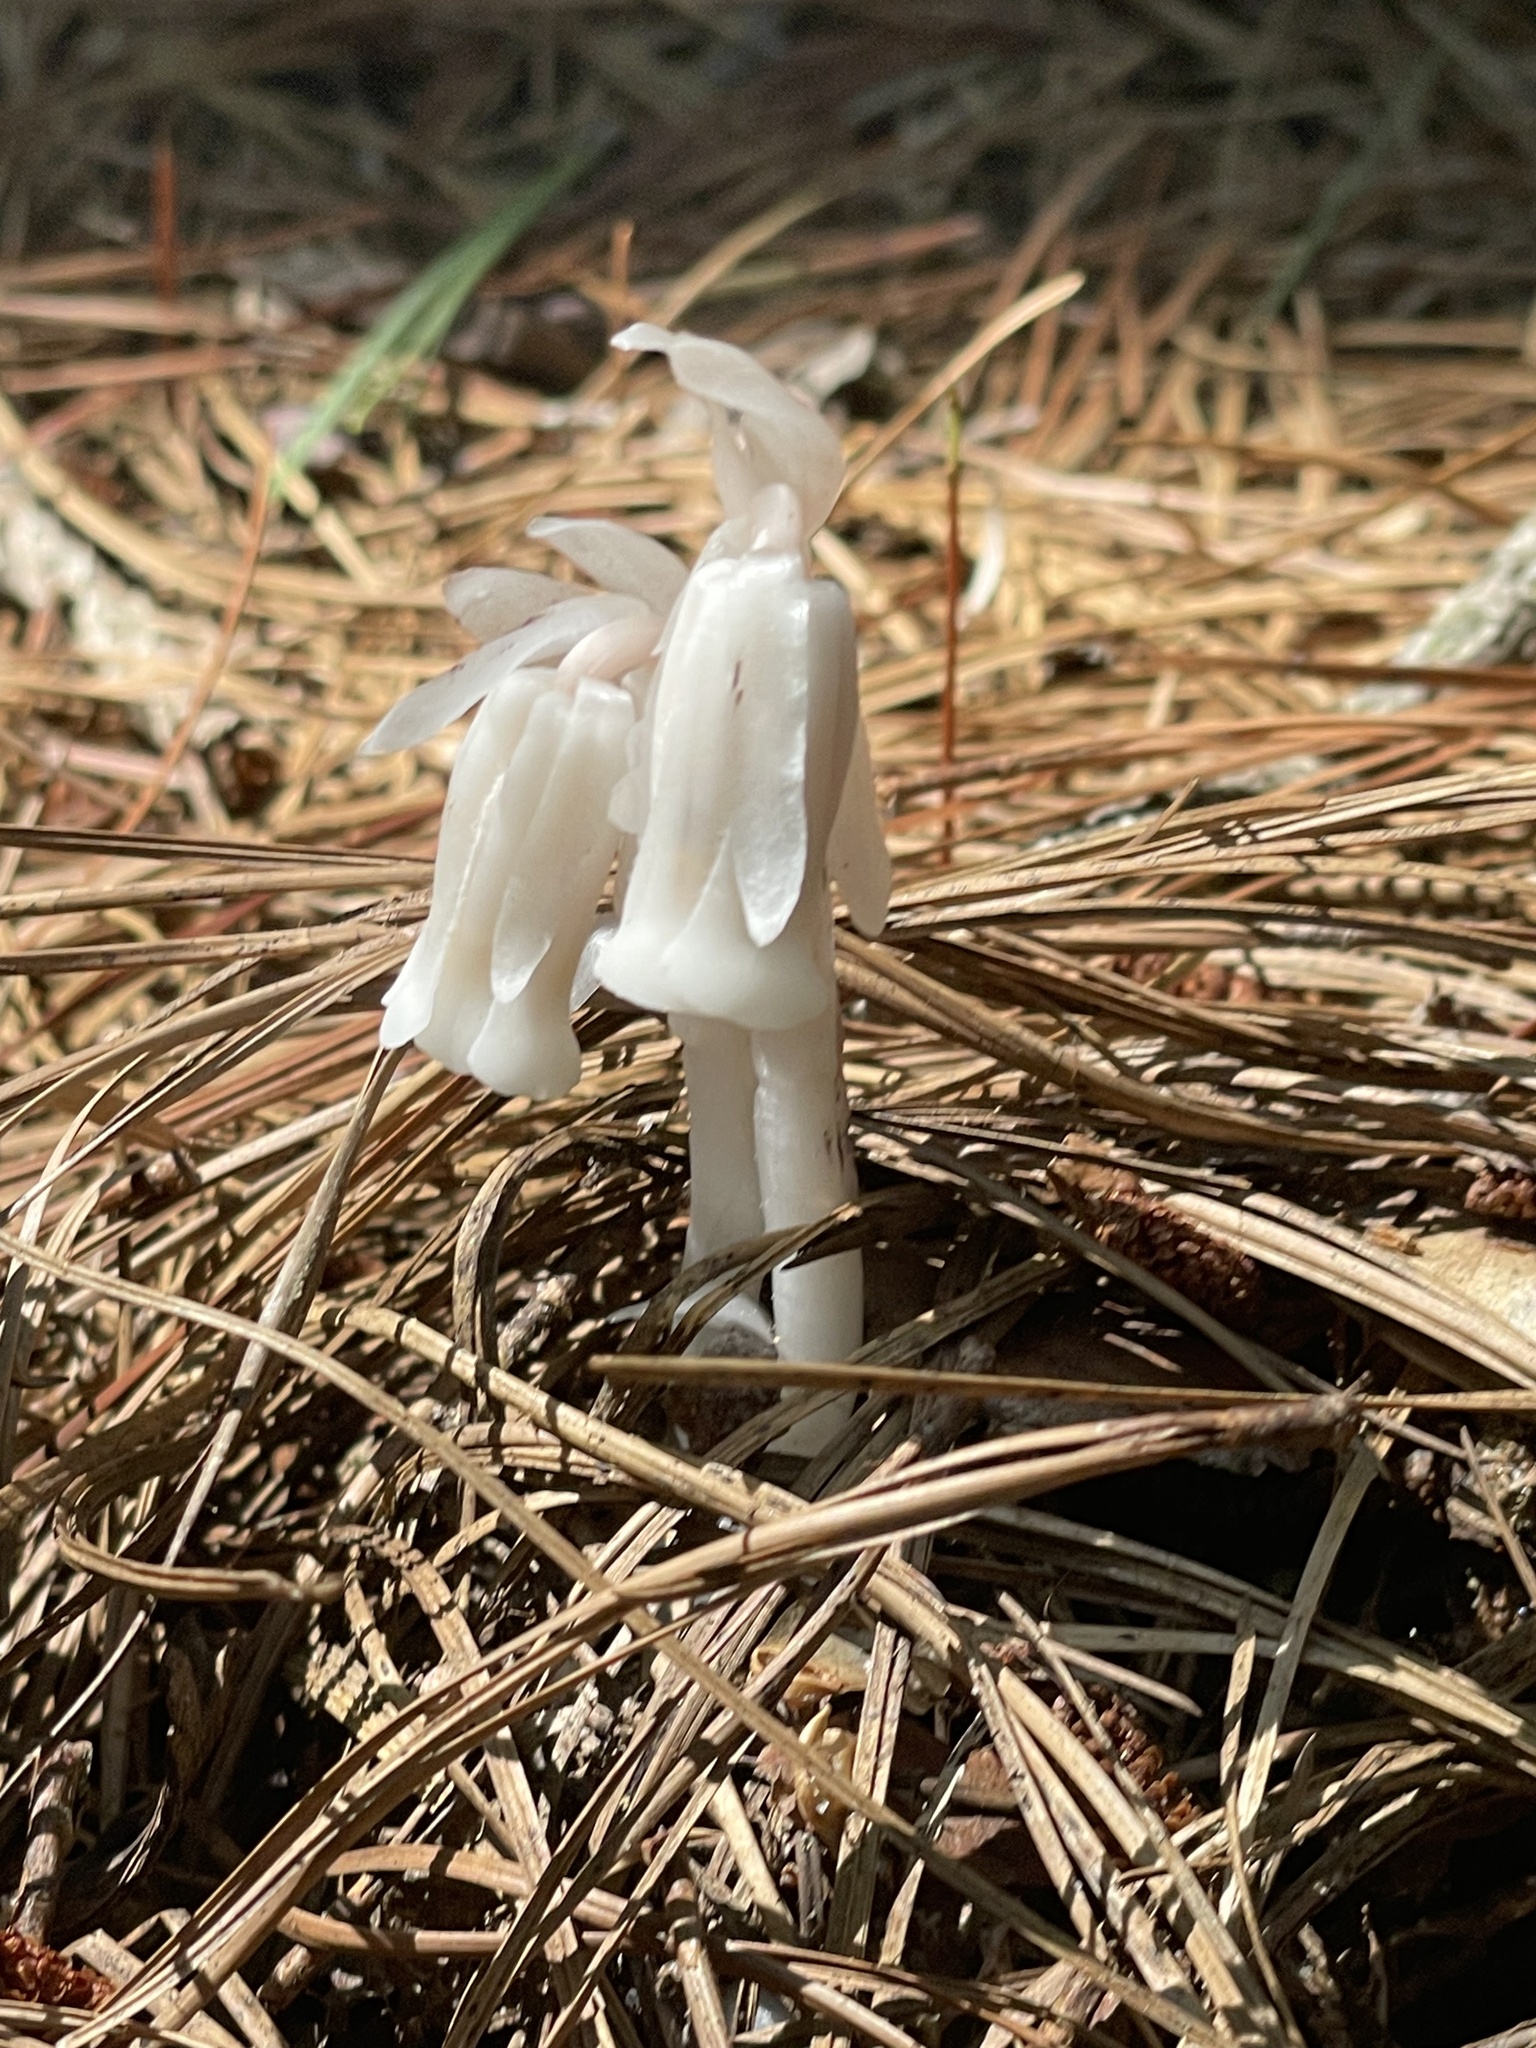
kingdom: Plantae
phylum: Tracheophyta
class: Magnoliopsida
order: Ericales
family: Ericaceae
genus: Monotropa
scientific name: Monotropa uniflora
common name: Convulsion root
